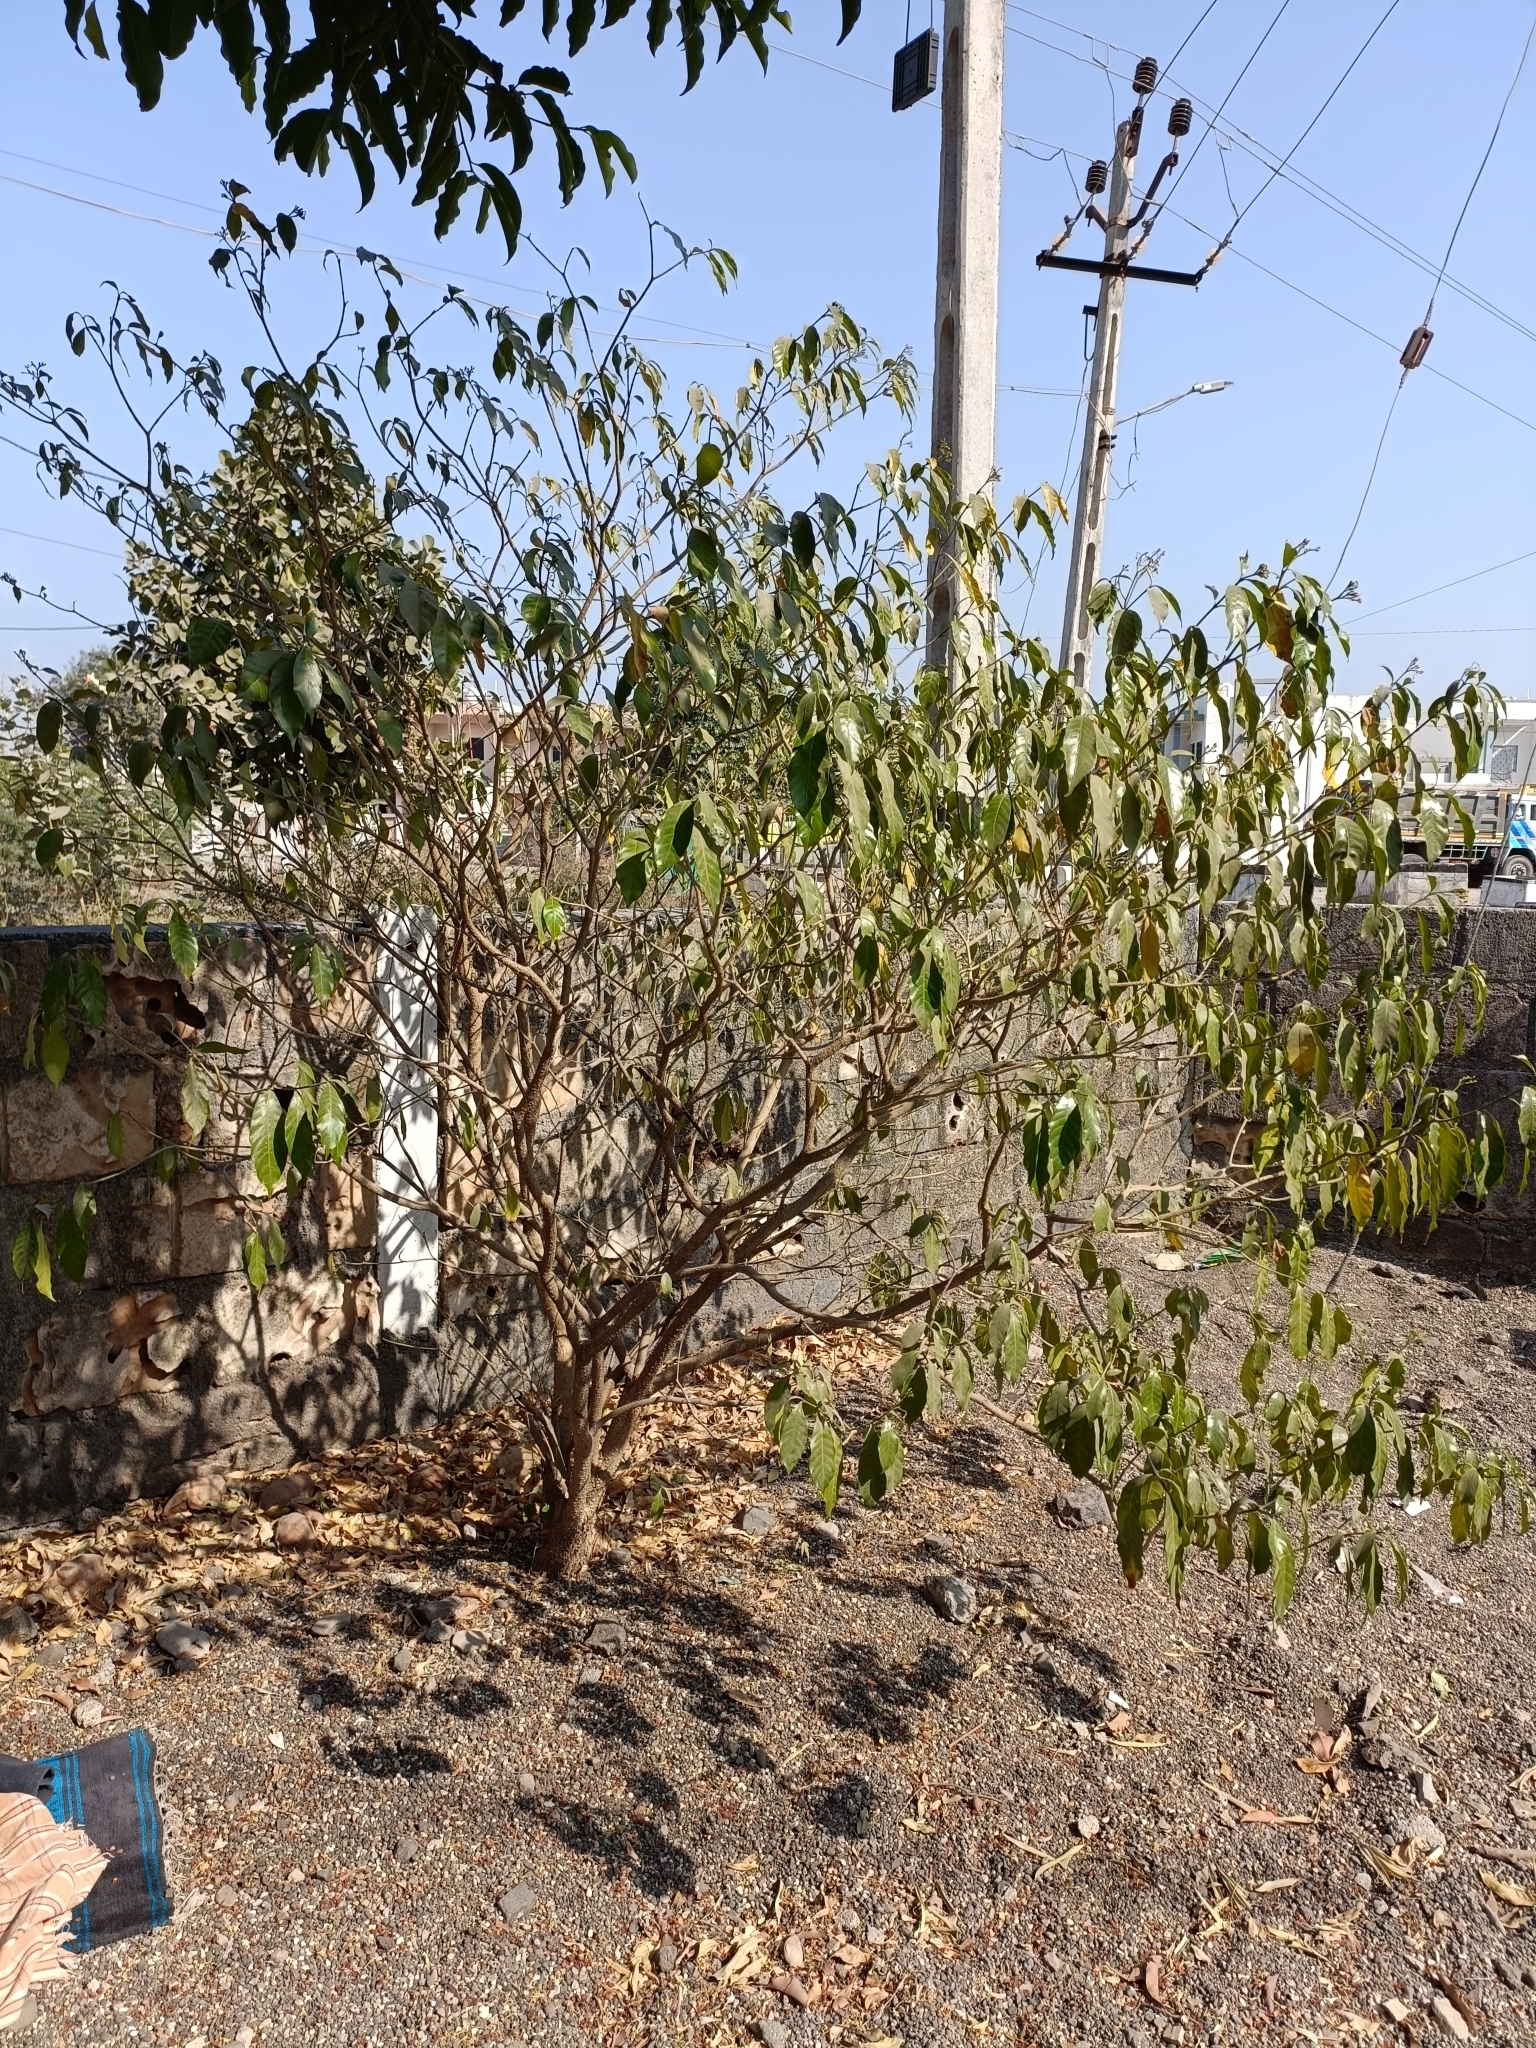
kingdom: Plantae
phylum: Tracheophyta
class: Magnoliopsida
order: Ericales
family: Sapotaceae
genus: Mimusops
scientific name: Mimusops elengi
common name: Spanish cherry
